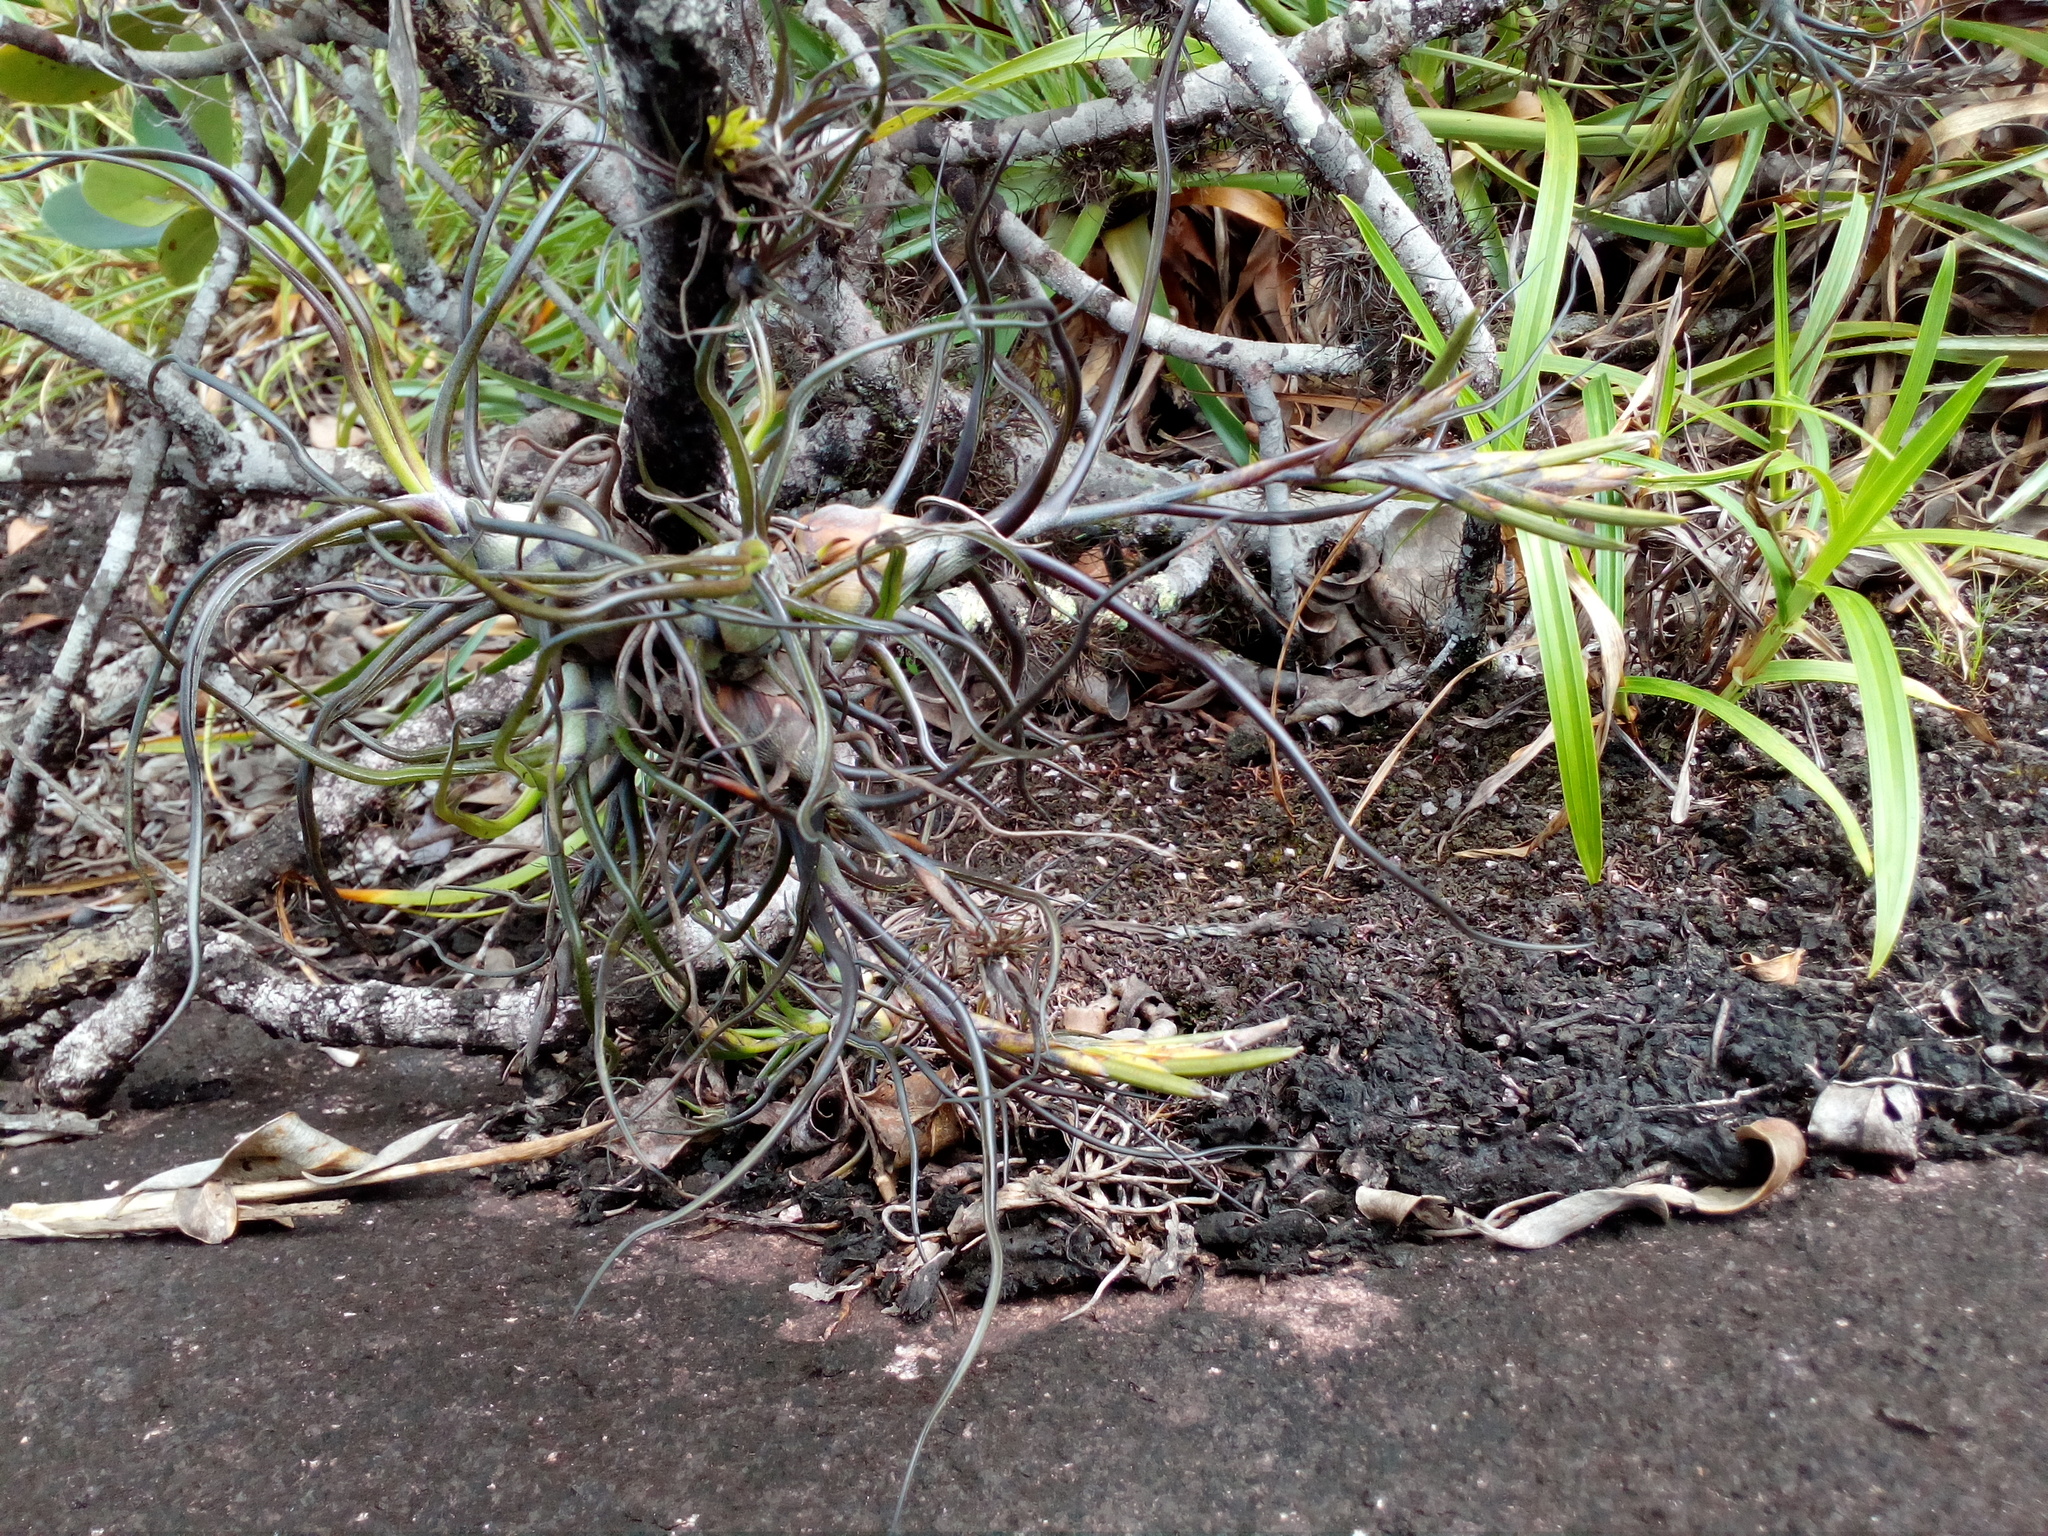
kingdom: Plantae
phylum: Tracheophyta
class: Liliopsida
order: Poales
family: Bromeliaceae
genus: Tillandsia
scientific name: Tillandsia bulbosa
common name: Bulbous airplant
